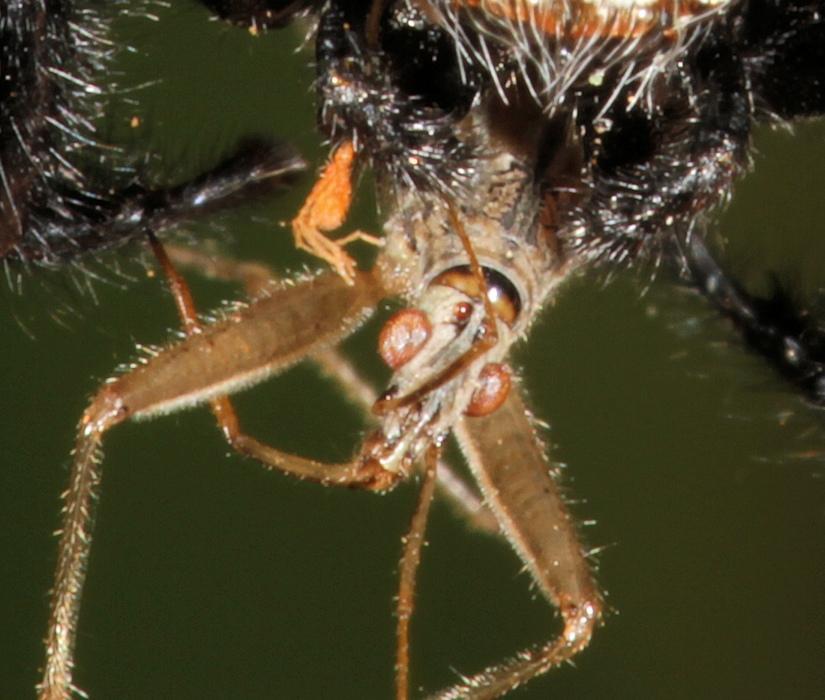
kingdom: Animalia
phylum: Arthropoda
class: Insecta
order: Hemiptera
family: Nabidae
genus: Nabis
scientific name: Nabis capsiformis
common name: Pale damsel bug
